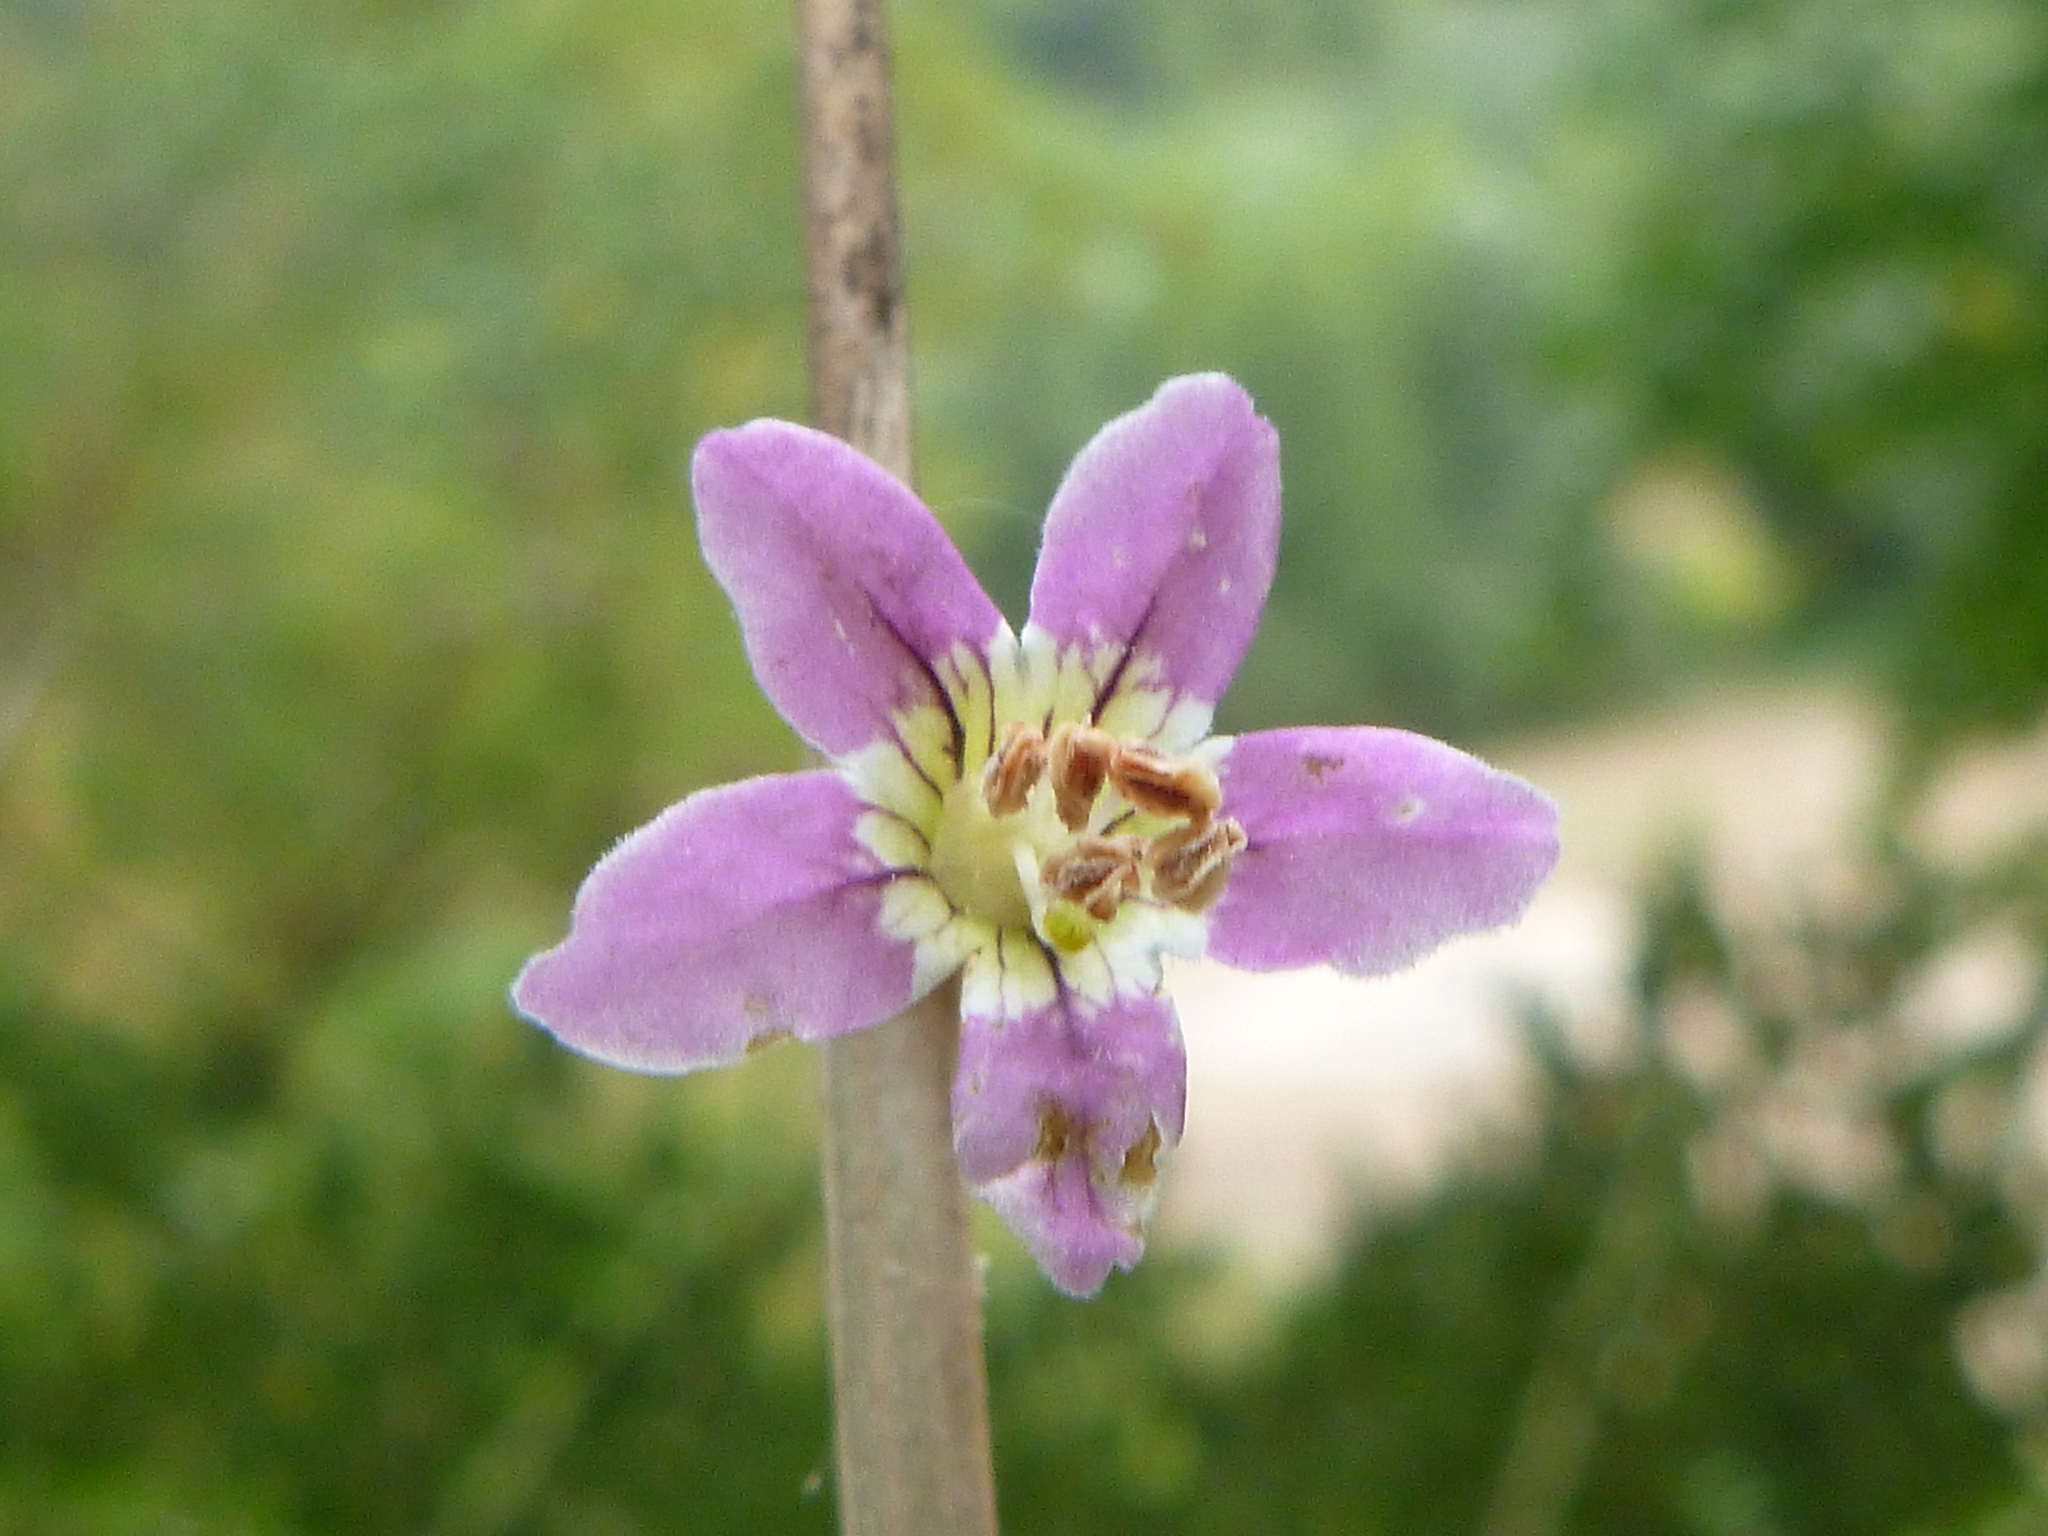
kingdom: Plantae
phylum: Tracheophyta
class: Magnoliopsida
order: Solanales
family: Solanaceae
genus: Lycium
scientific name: Lycium barbarum
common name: Duke of argyll's teaplant
